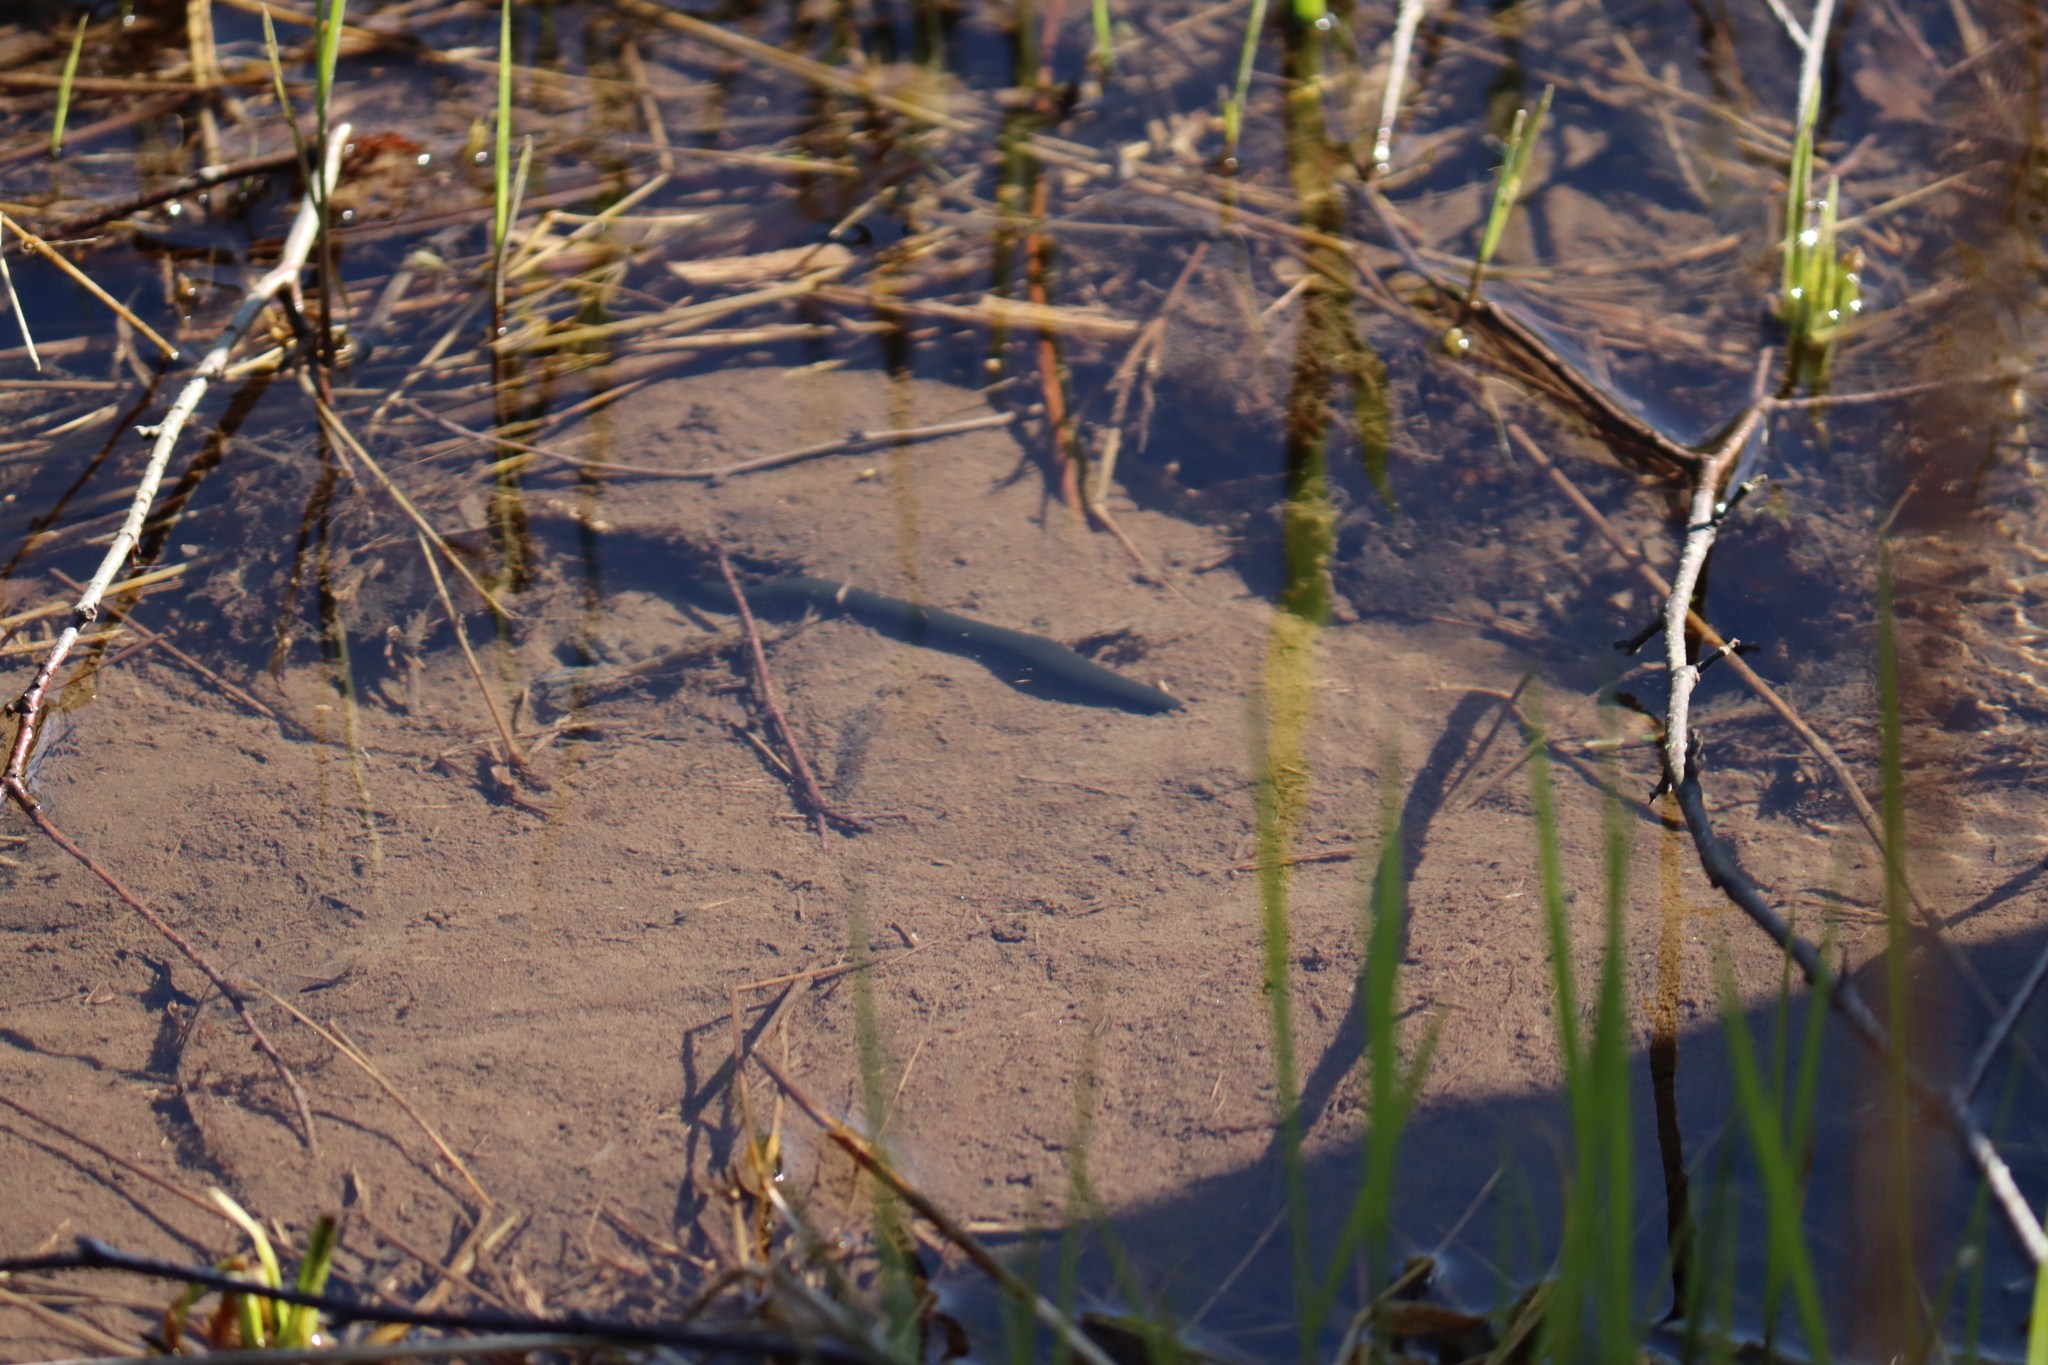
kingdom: Animalia
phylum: Annelida
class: Clitellata
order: Arhynchobdellida
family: Haemopidae
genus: Haemopis
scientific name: Haemopis sanguisuga
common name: Horse leech
